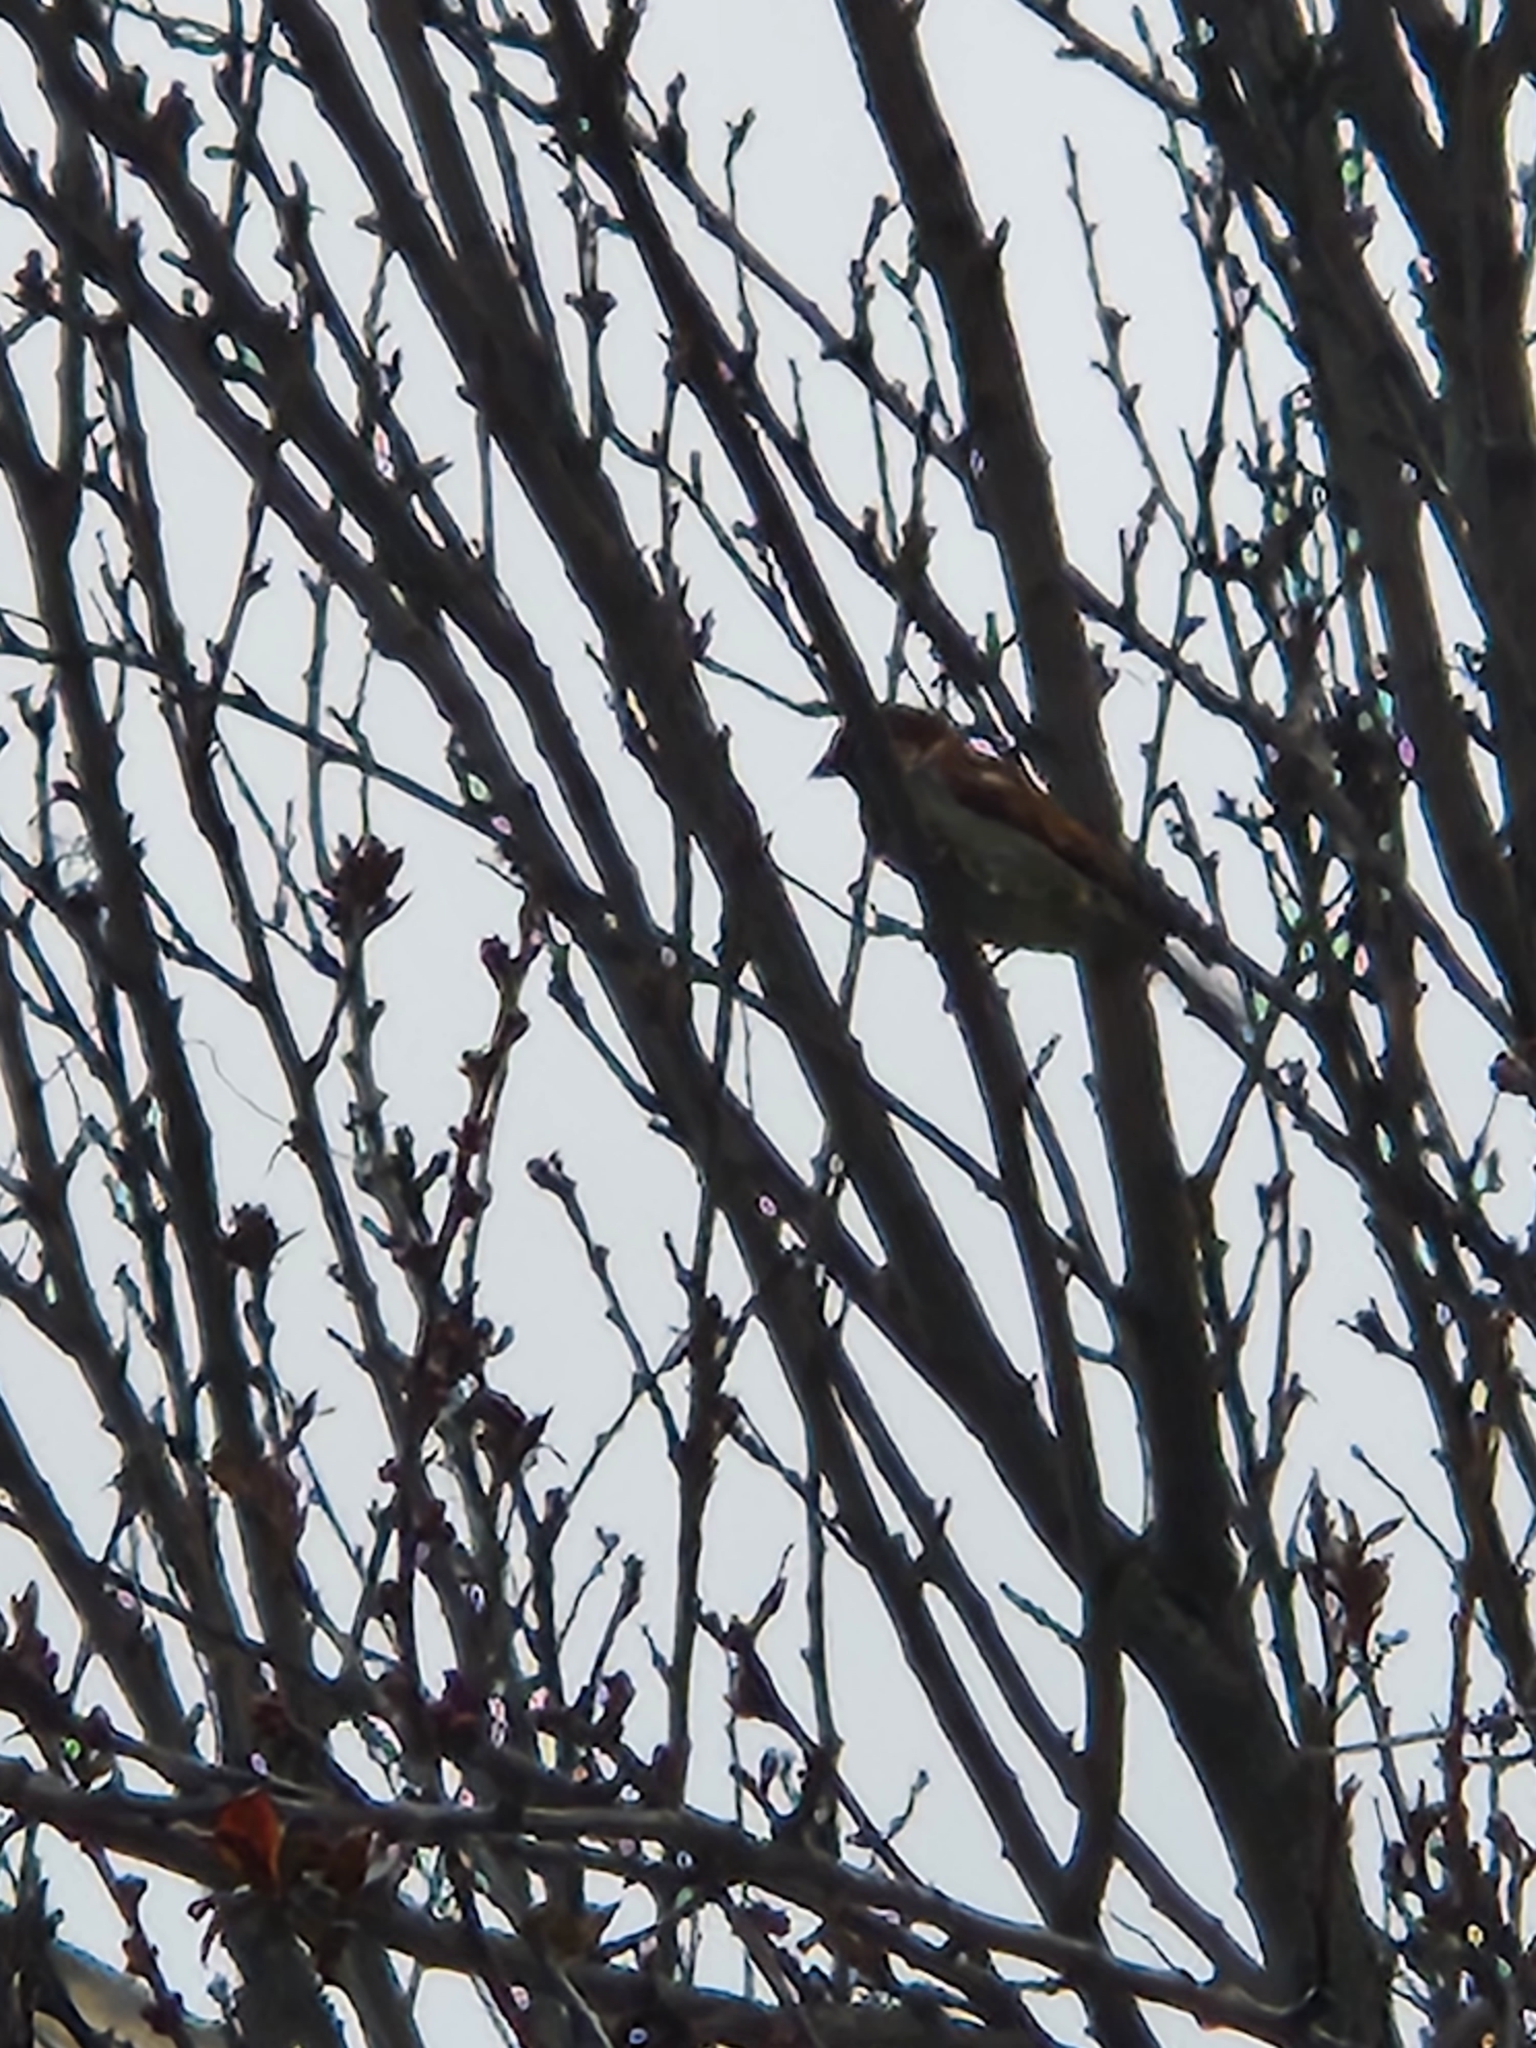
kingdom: Animalia
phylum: Chordata
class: Aves
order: Passeriformes
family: Passeridae
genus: Passer
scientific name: Passer domesticus
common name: House sparrow
